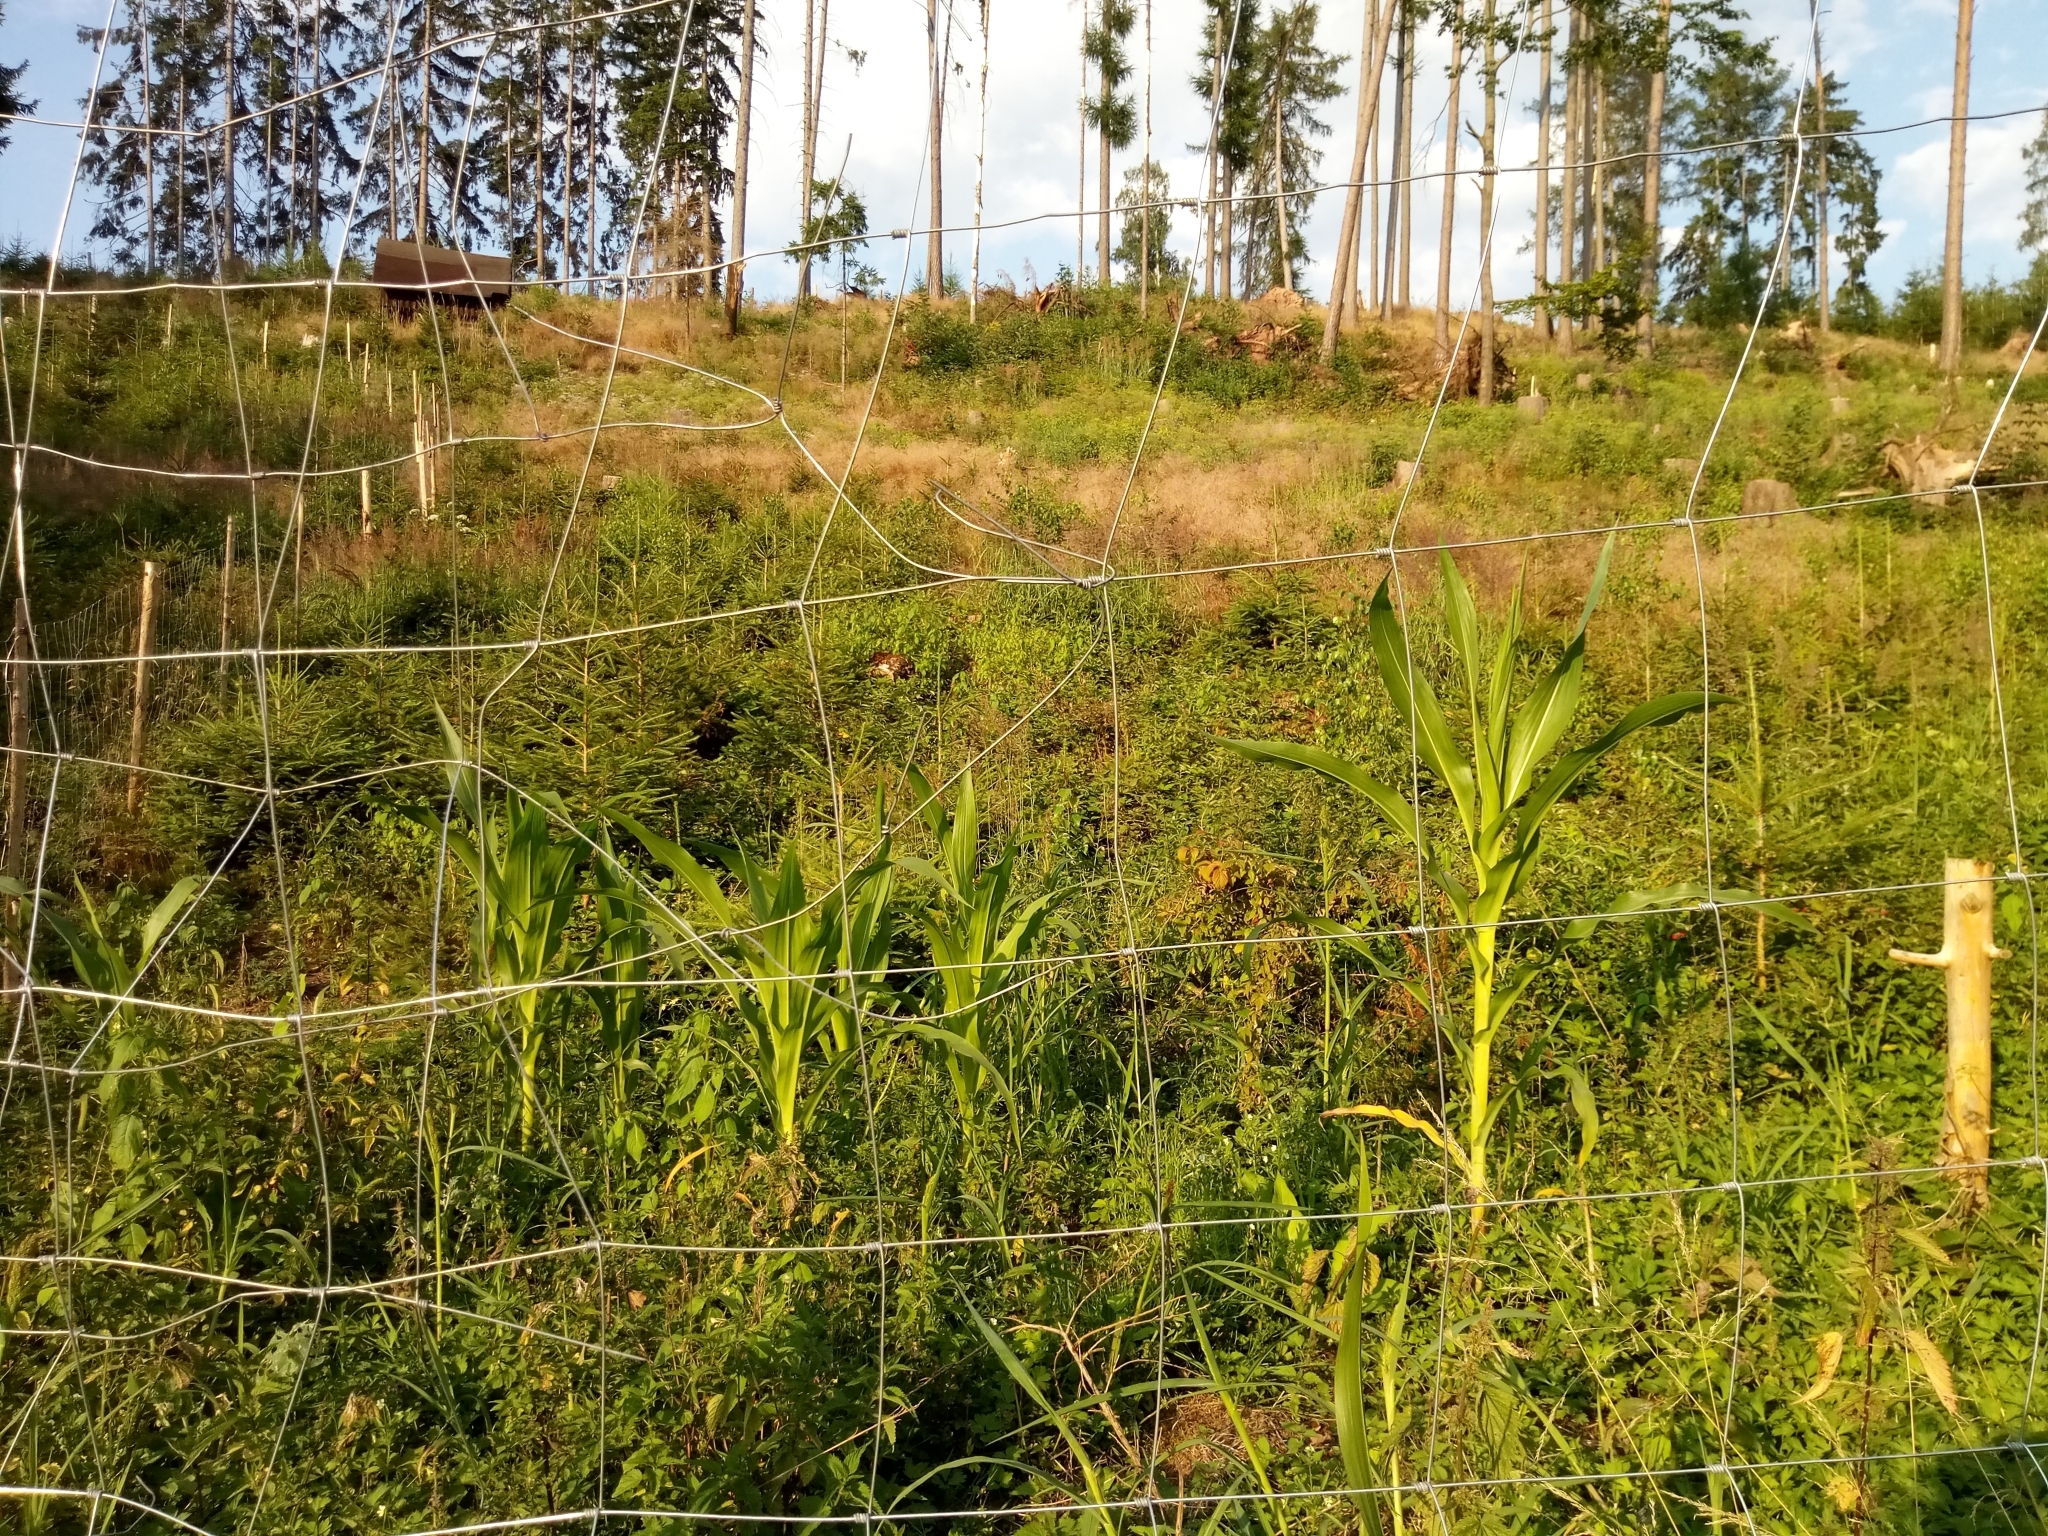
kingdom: Plantae
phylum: Tracheophyta
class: Liliopsida
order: Poales
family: Poaceae
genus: Zea
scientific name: Zea mays
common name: Maize
